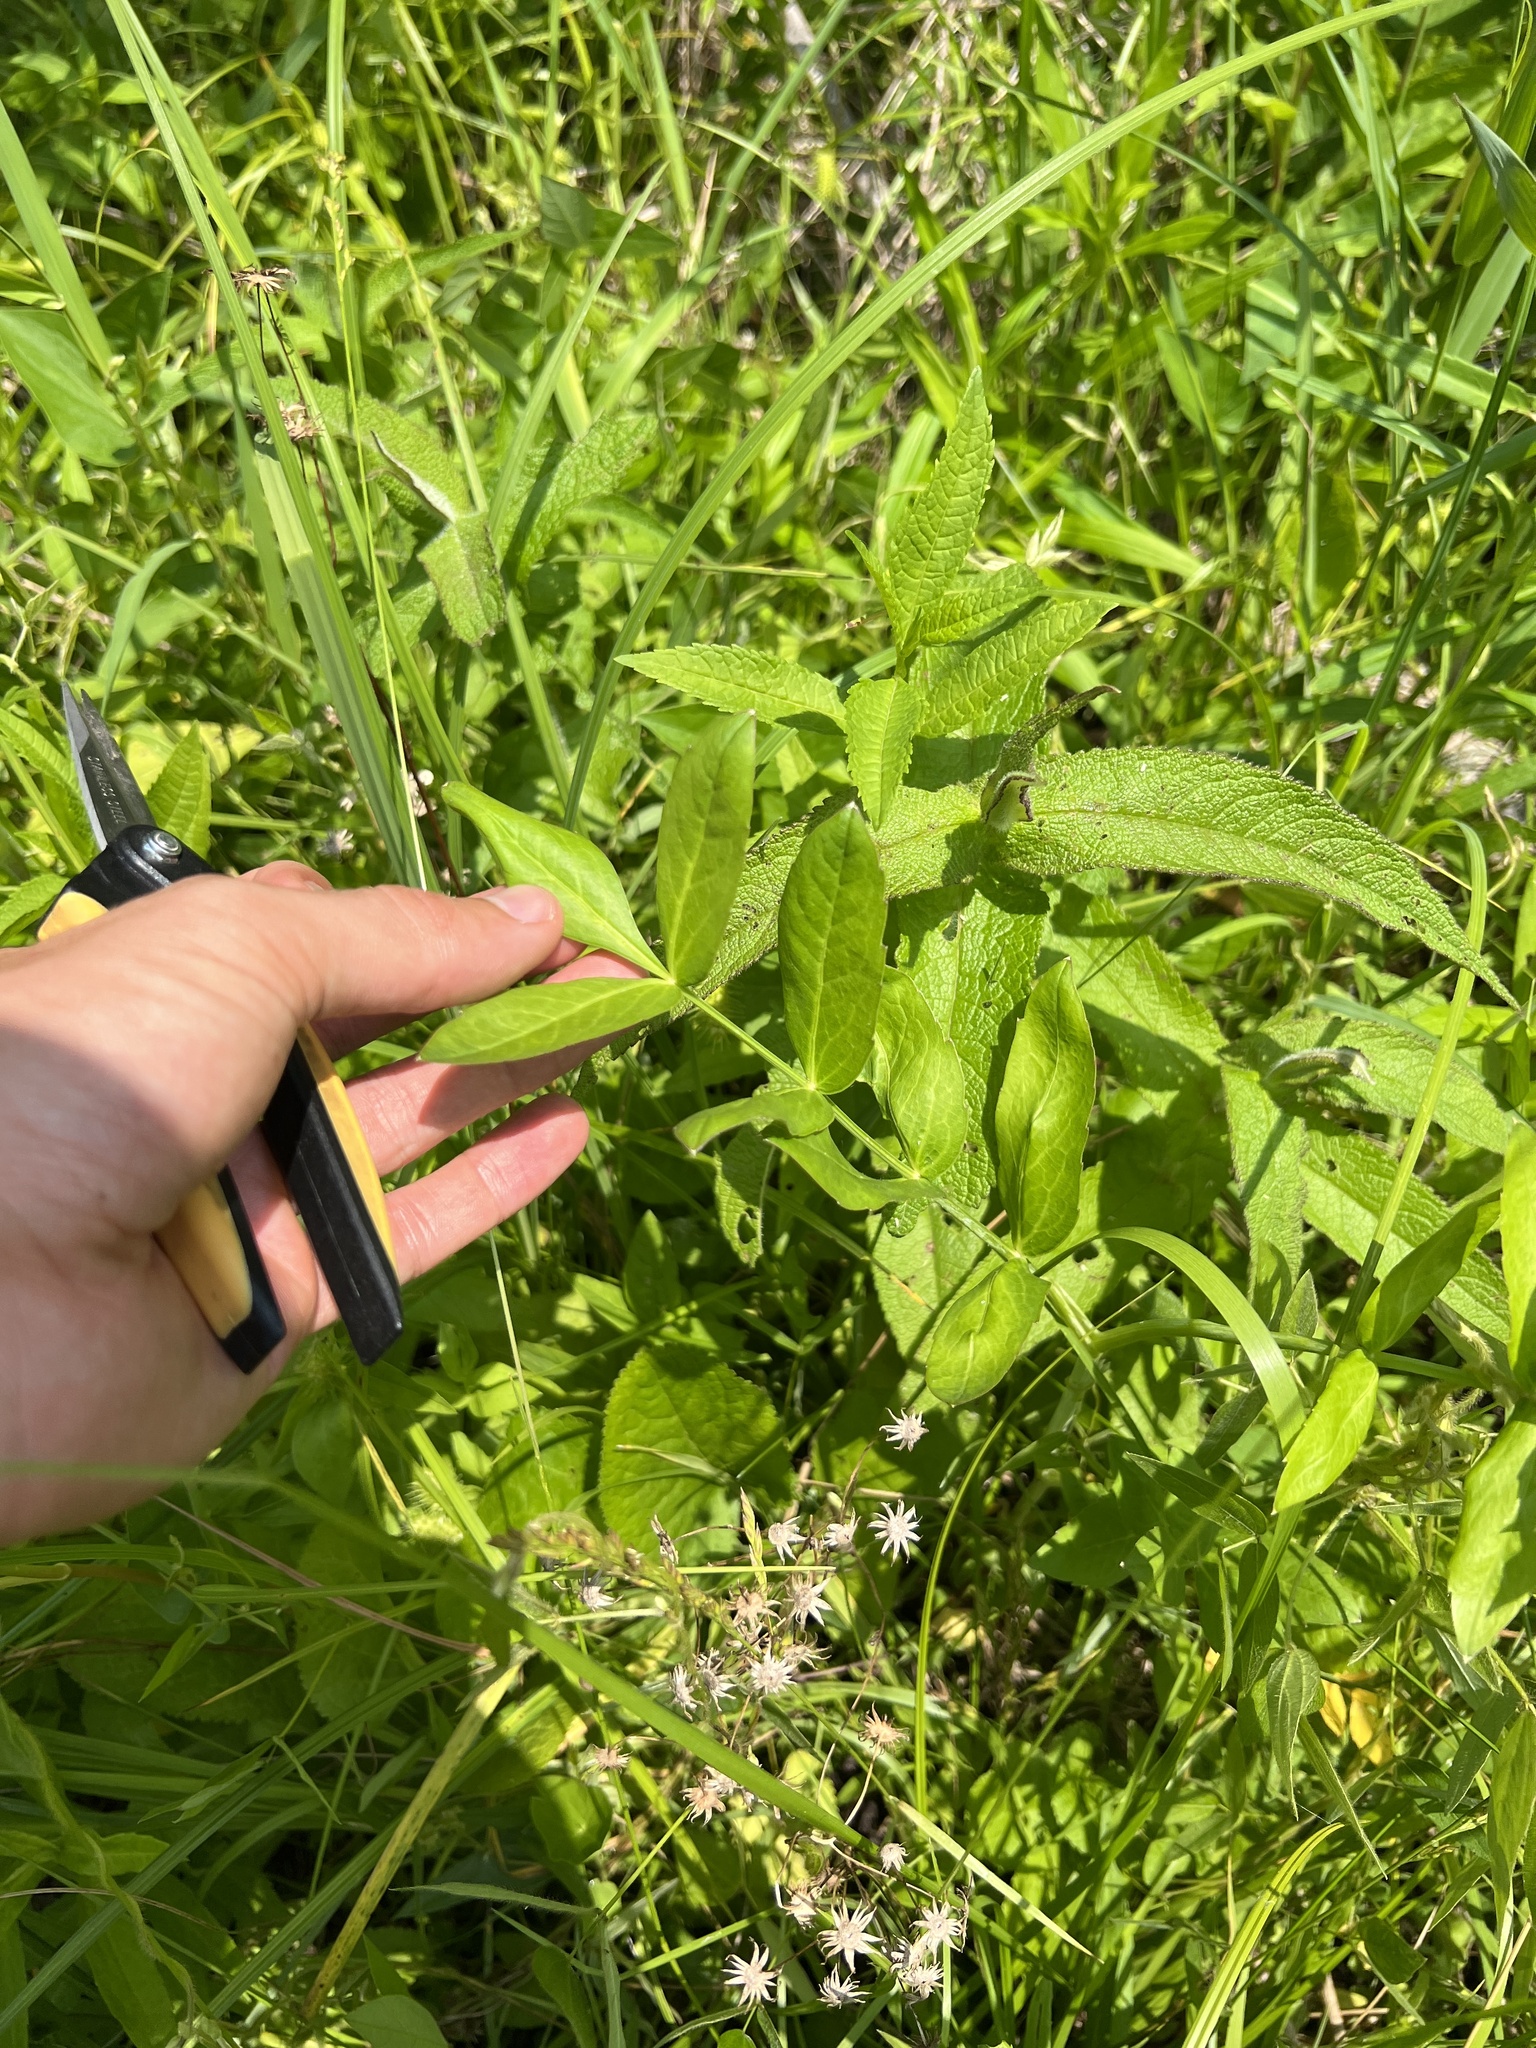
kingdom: Plantae
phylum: Tracheophyta
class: Magnoliopsida
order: Apiales
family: Apiaceae
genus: Sium
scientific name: Sium suave
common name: Hemlock water-parsnip
